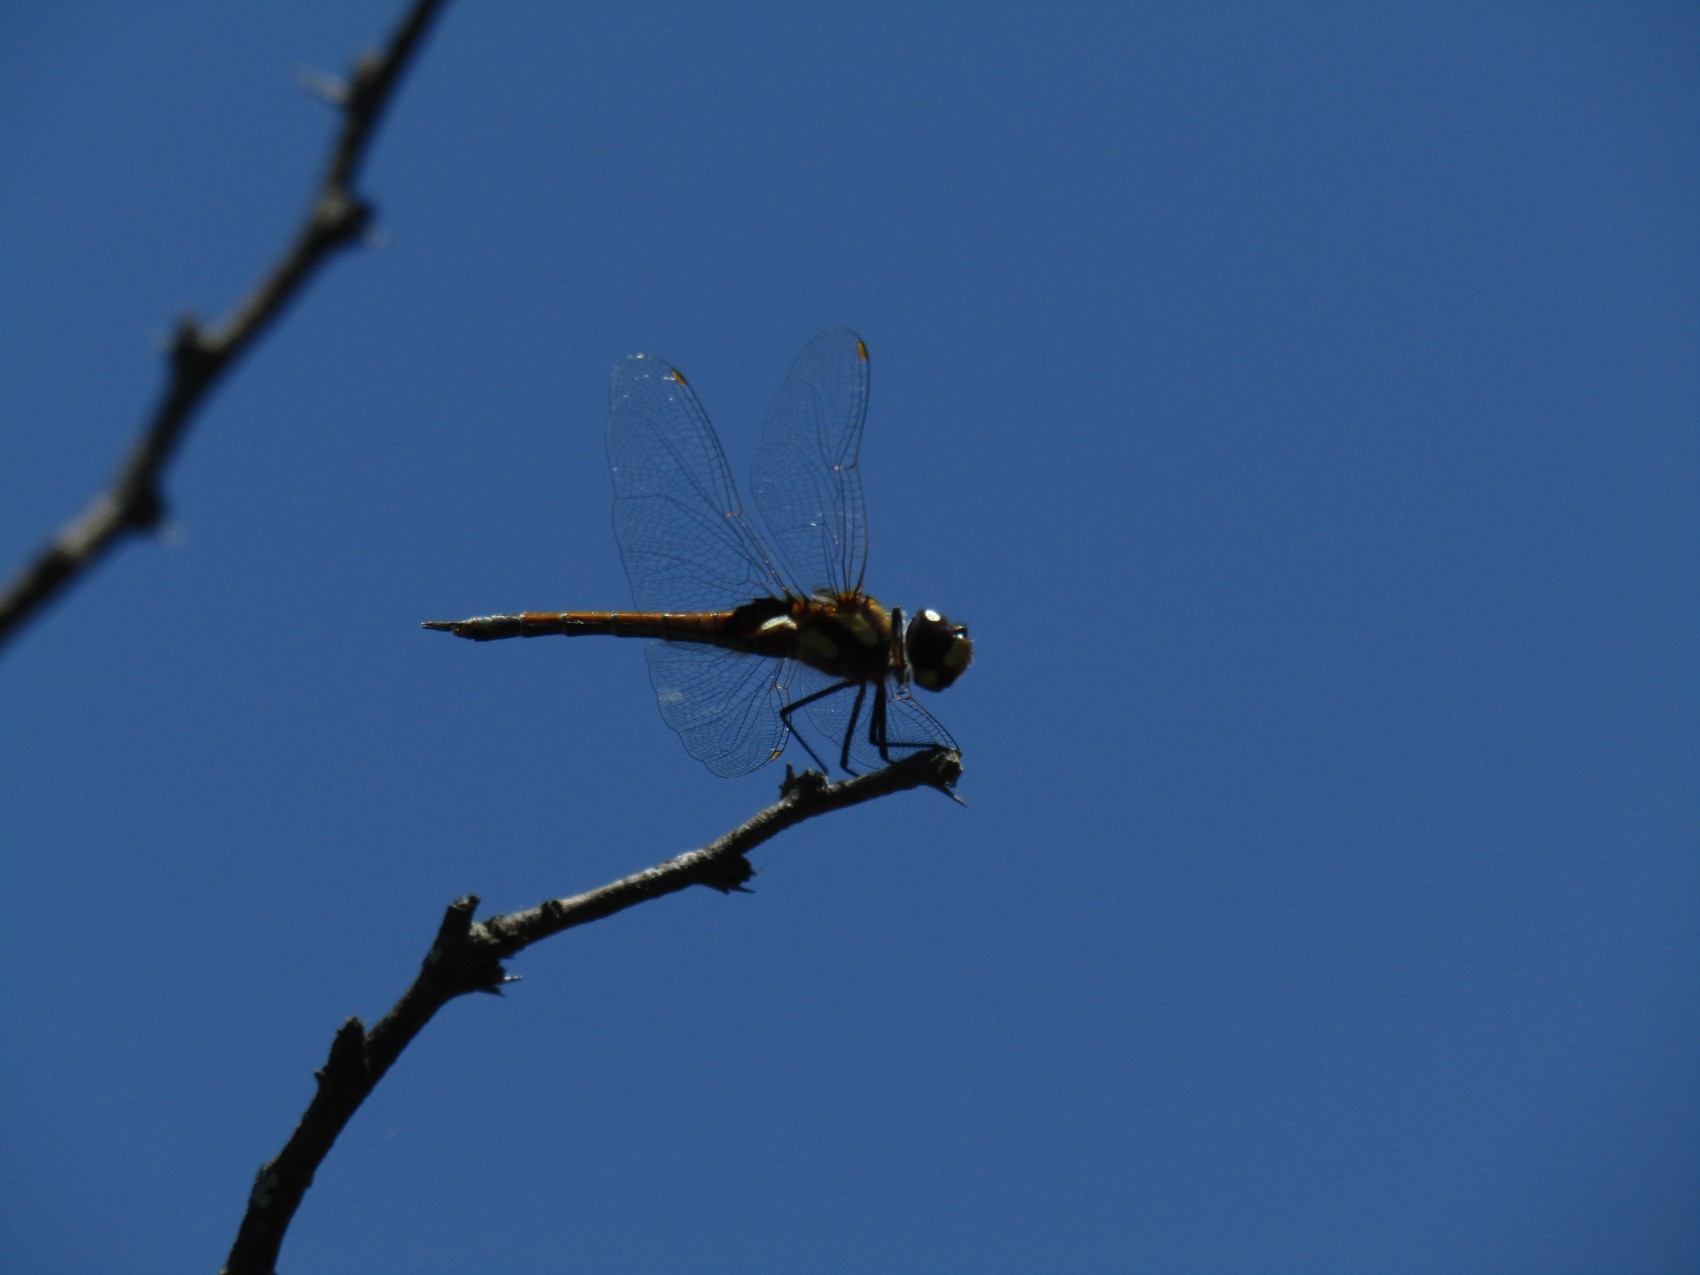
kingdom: Animalia
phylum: Arthropoda
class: Insecta
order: Odonata
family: Libellulidae
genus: Tramea
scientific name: Tramea cophysa
